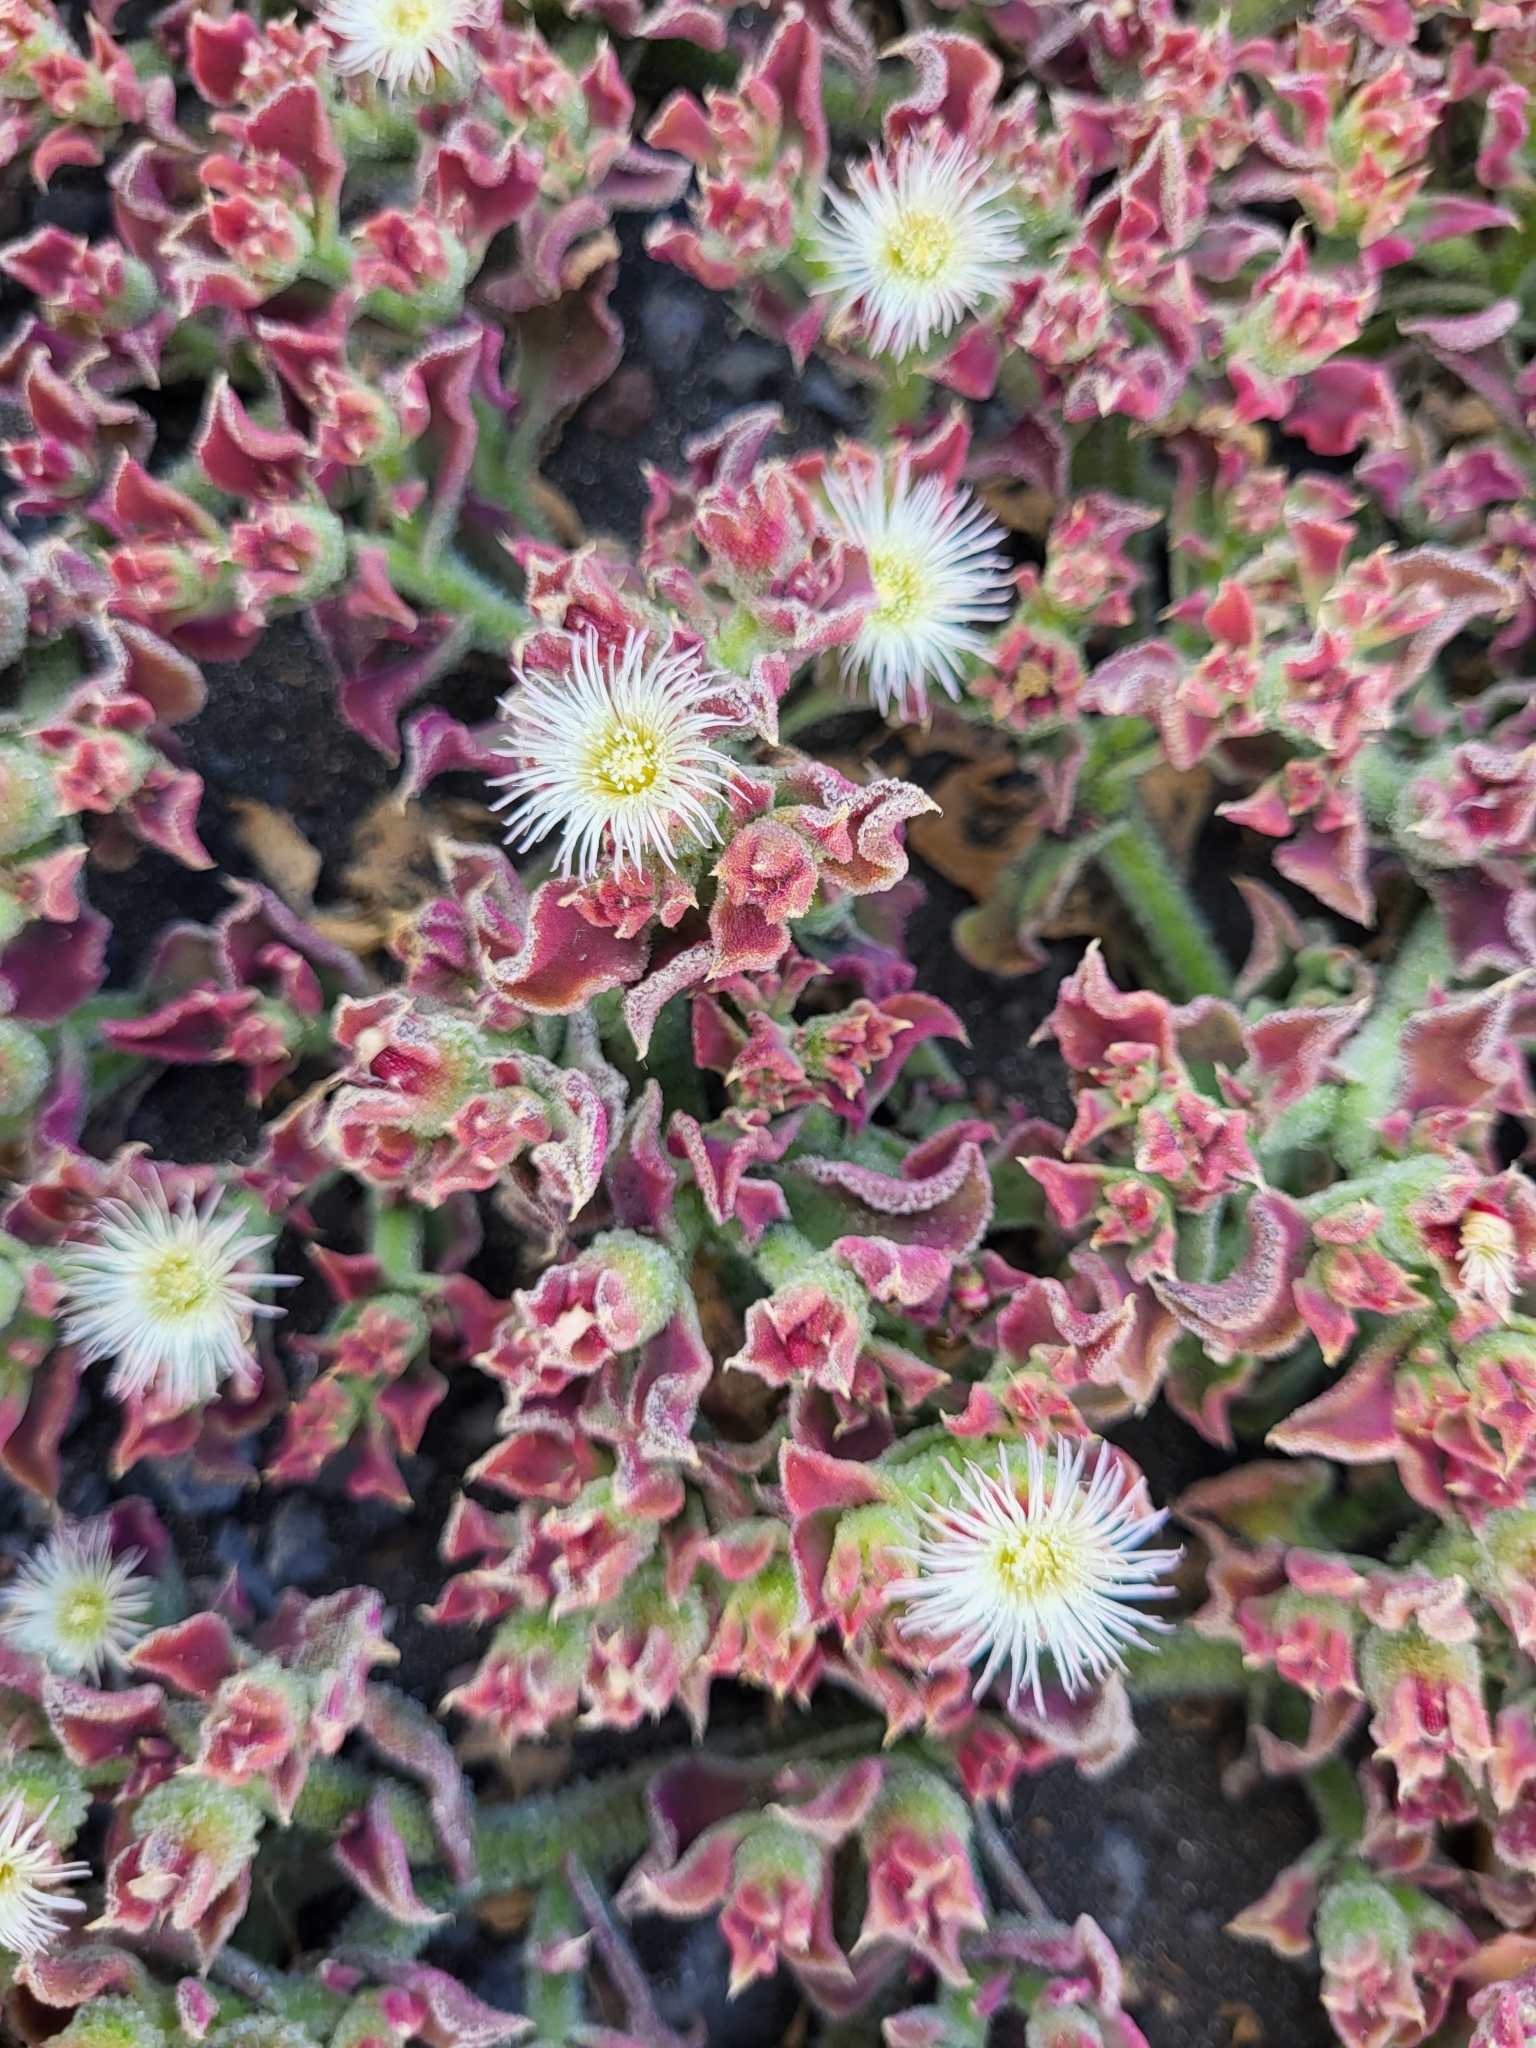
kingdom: Plantae
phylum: Tracheophyta
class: Magnoliopsida
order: Caryophyllales
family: Aizoaceae
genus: Mesembryanthemum
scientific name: Mesembryanthemum crystallinum
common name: Common iceplant
